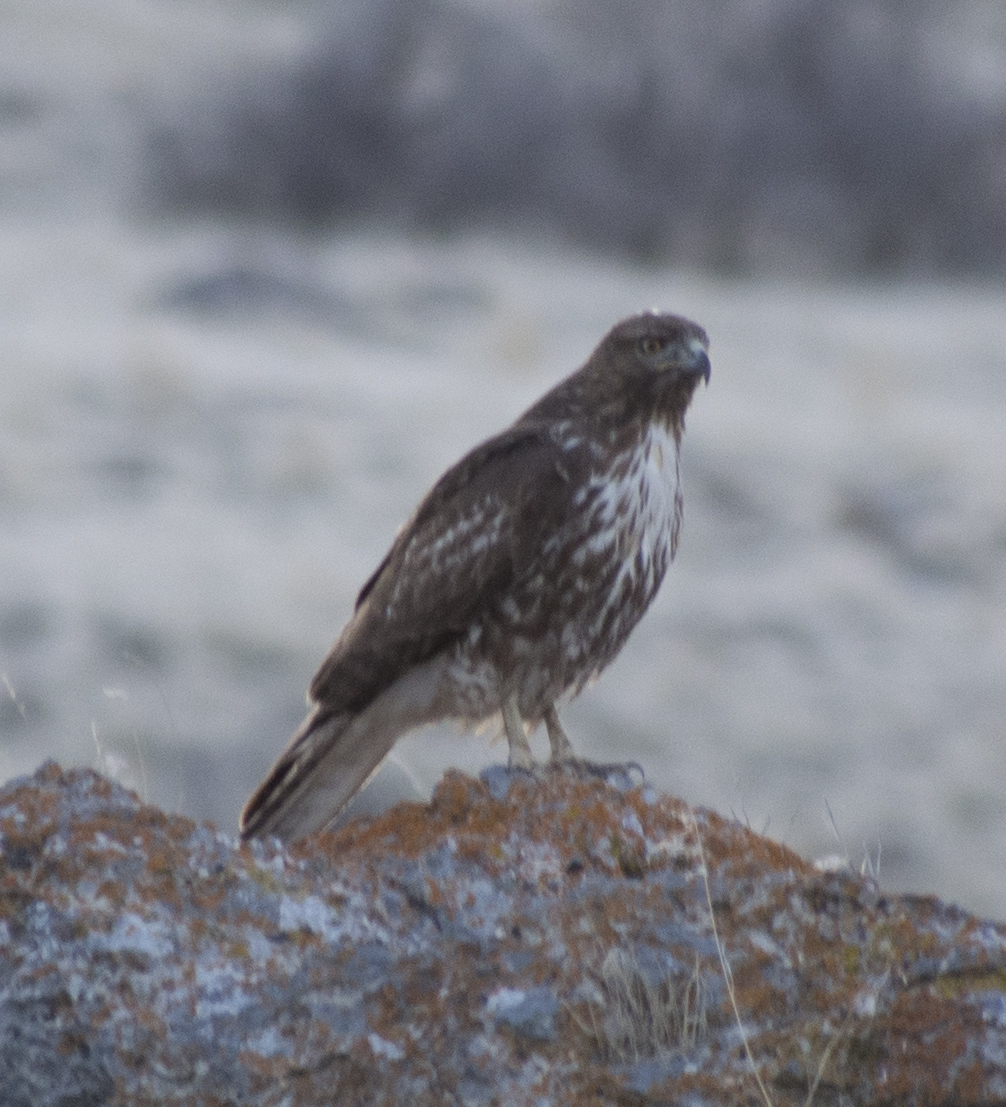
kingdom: Animalia
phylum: Chordata
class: Aves
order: Accipitriformes
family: Accipitridae
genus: Buteo
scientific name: Buteo jamaicensis
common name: Red-tailed hawk
